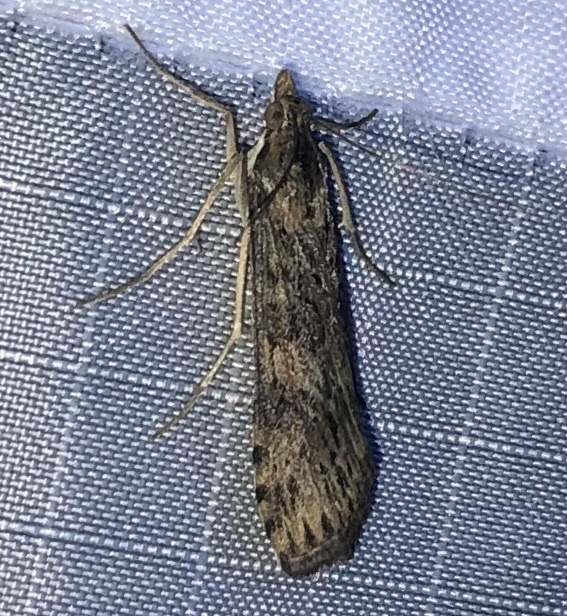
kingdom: Animalia
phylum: Arthropoda
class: Insecta
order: Lepidoptera
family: Crambidae
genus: Nomophila
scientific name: Nomophila nearctica
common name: American rush veneer
